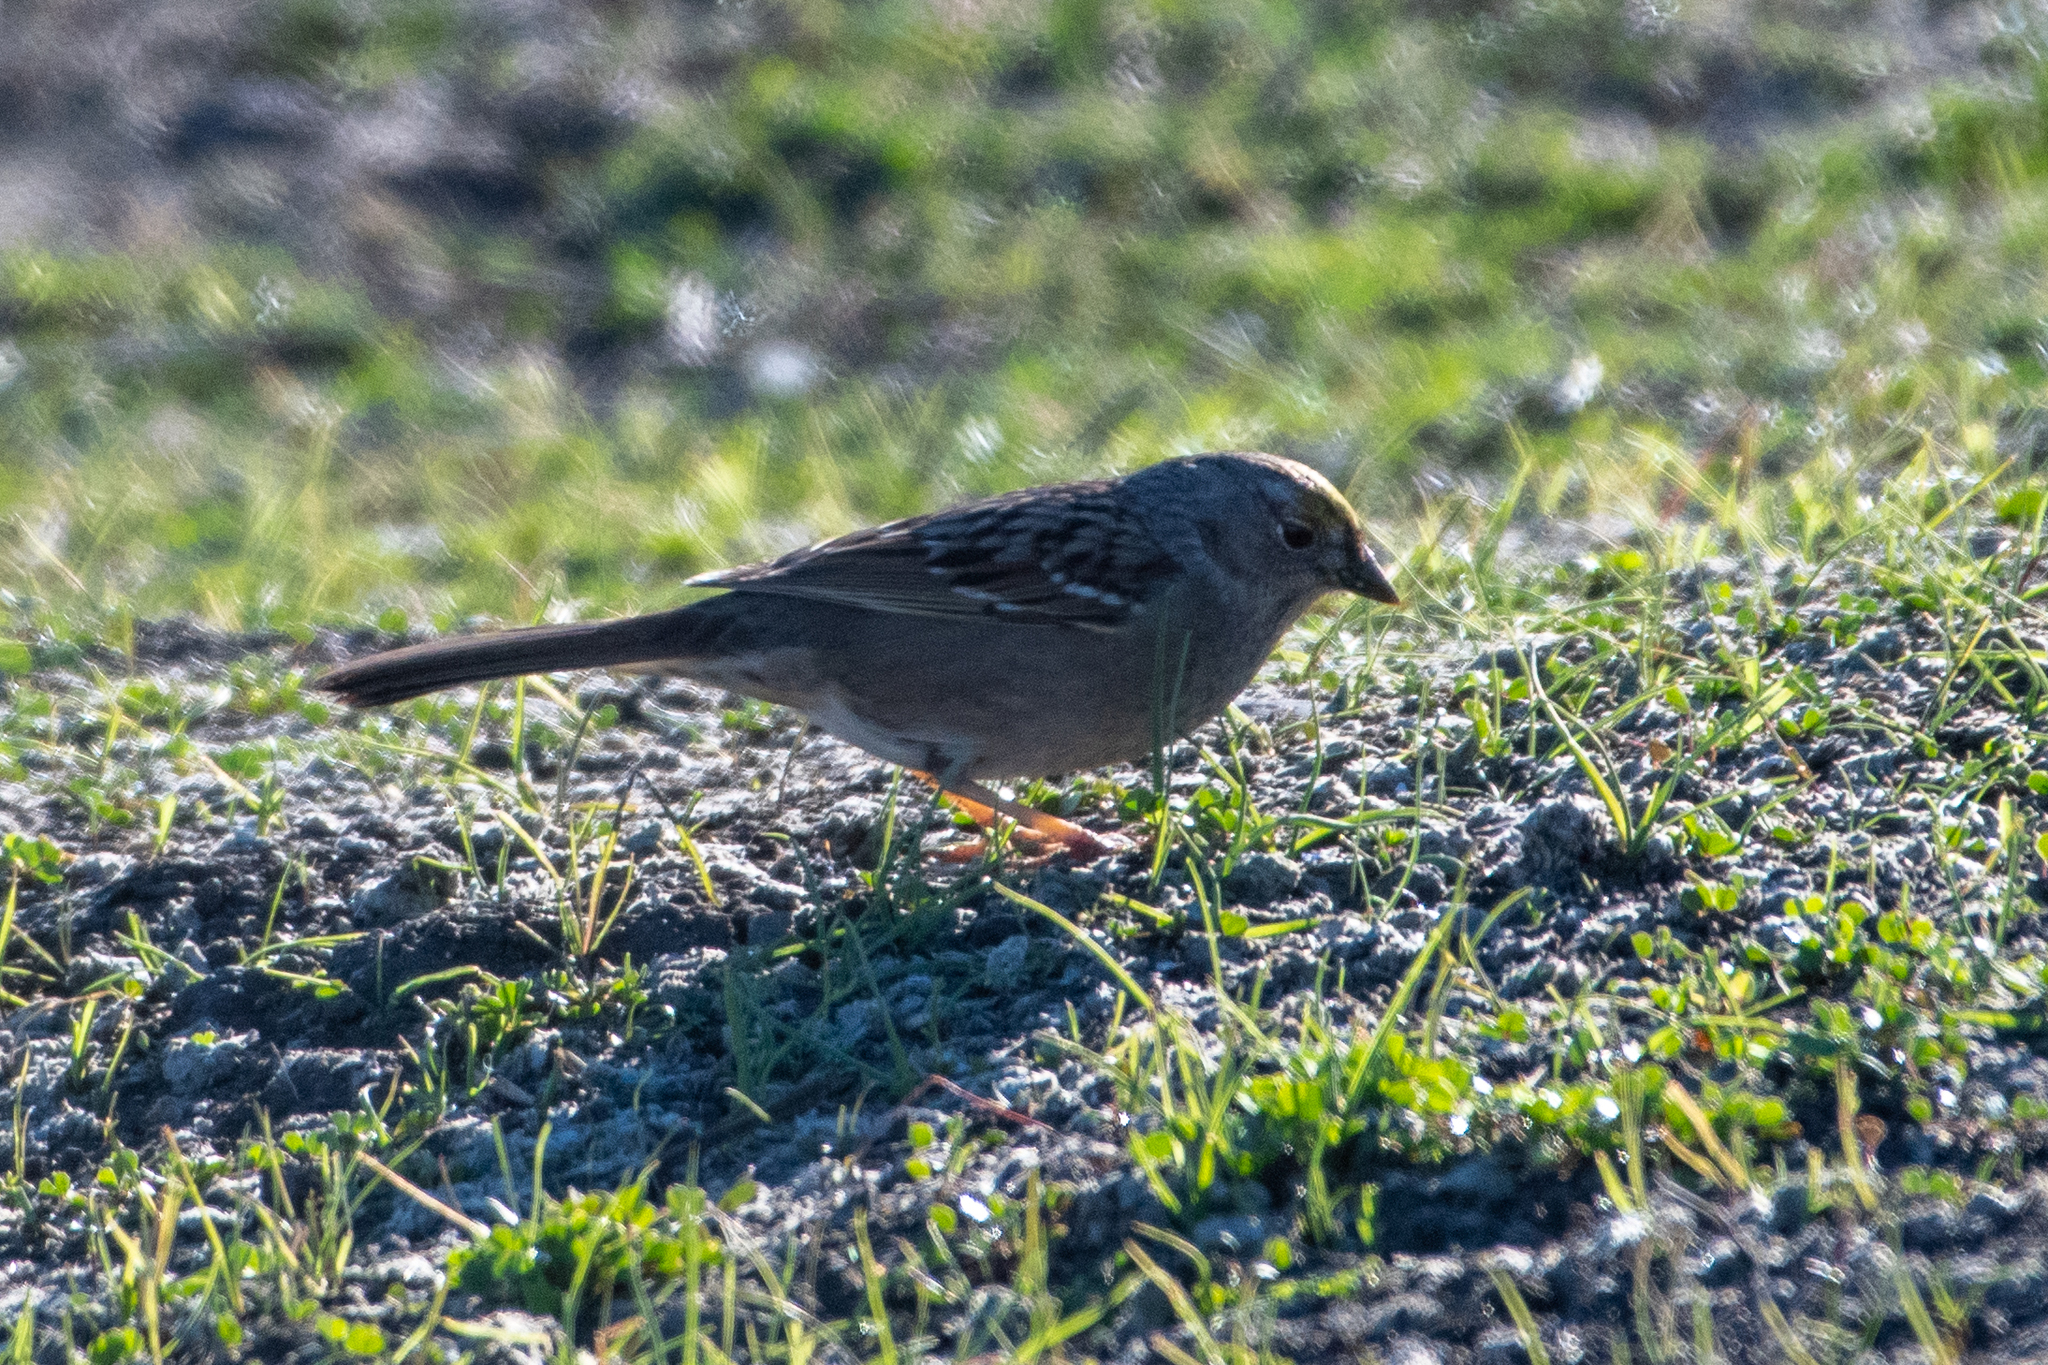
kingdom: Animalia
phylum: Chordata
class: Aves
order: Passeriformes
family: Passerellidae
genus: Zonotrichia
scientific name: Zonotrichia atricapilla
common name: Golden-crowned sparrow
